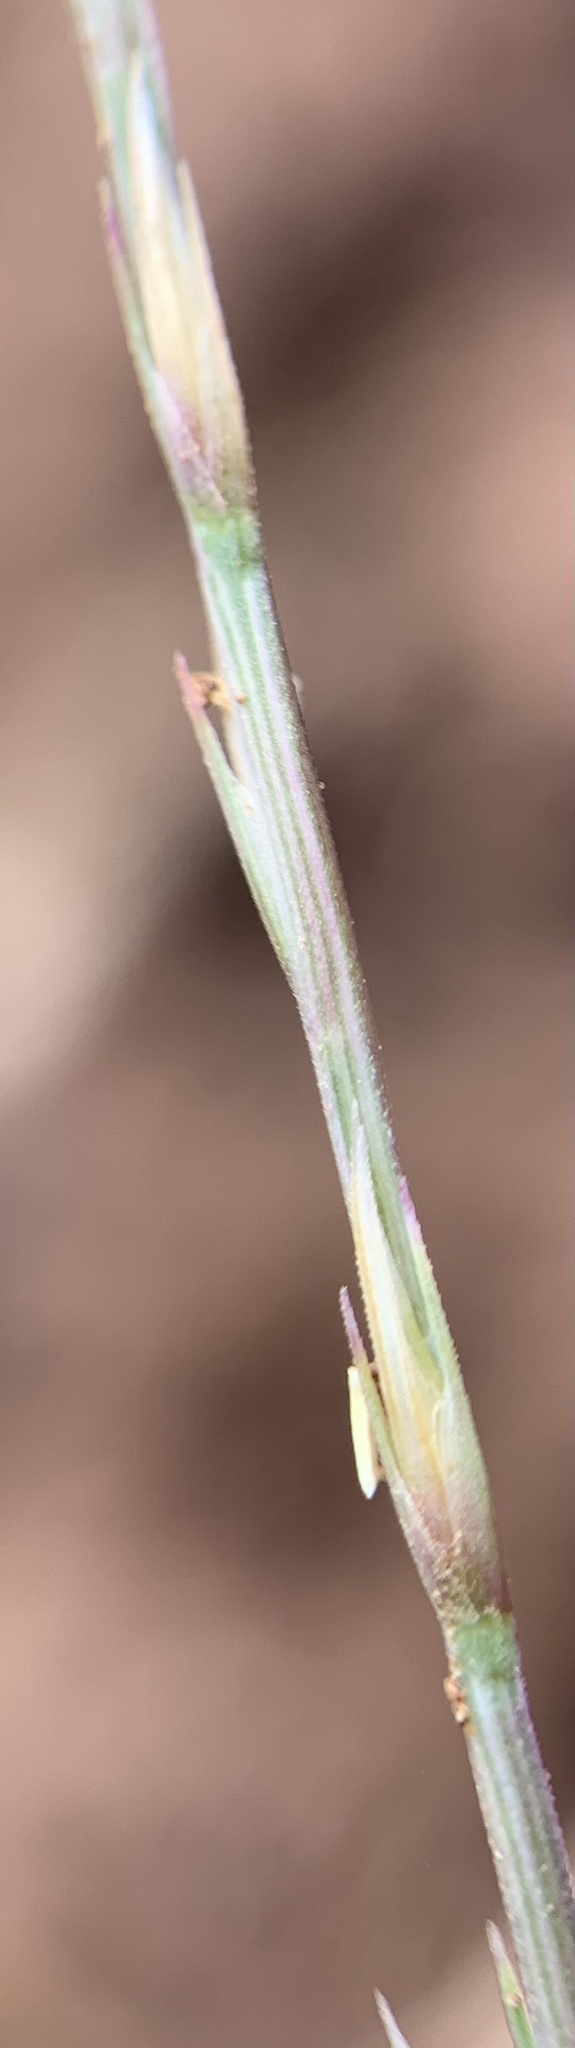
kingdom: Plantae
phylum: Tracheophyta
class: Liliopsida
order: Poales
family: Poaceae
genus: Muhlenbergia
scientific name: Muhlenbergia paniculata
